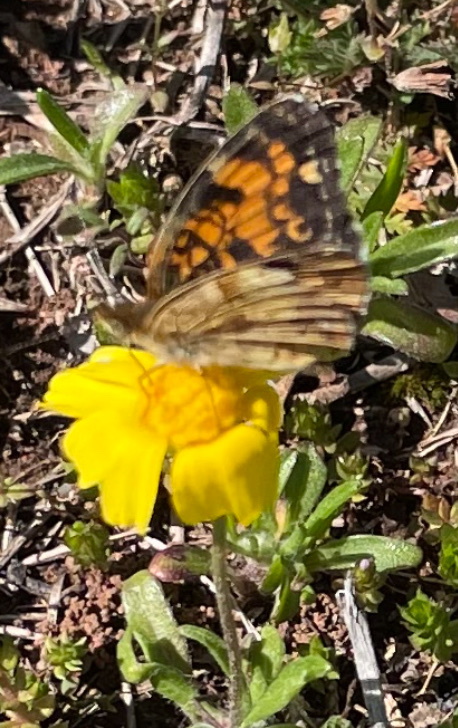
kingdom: Animalia
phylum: Arthropoda
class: Insecta
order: Lepidoptera
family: Nymphalidae
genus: Phyciodes
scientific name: Phyciodes tharos
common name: Pearl crescent
